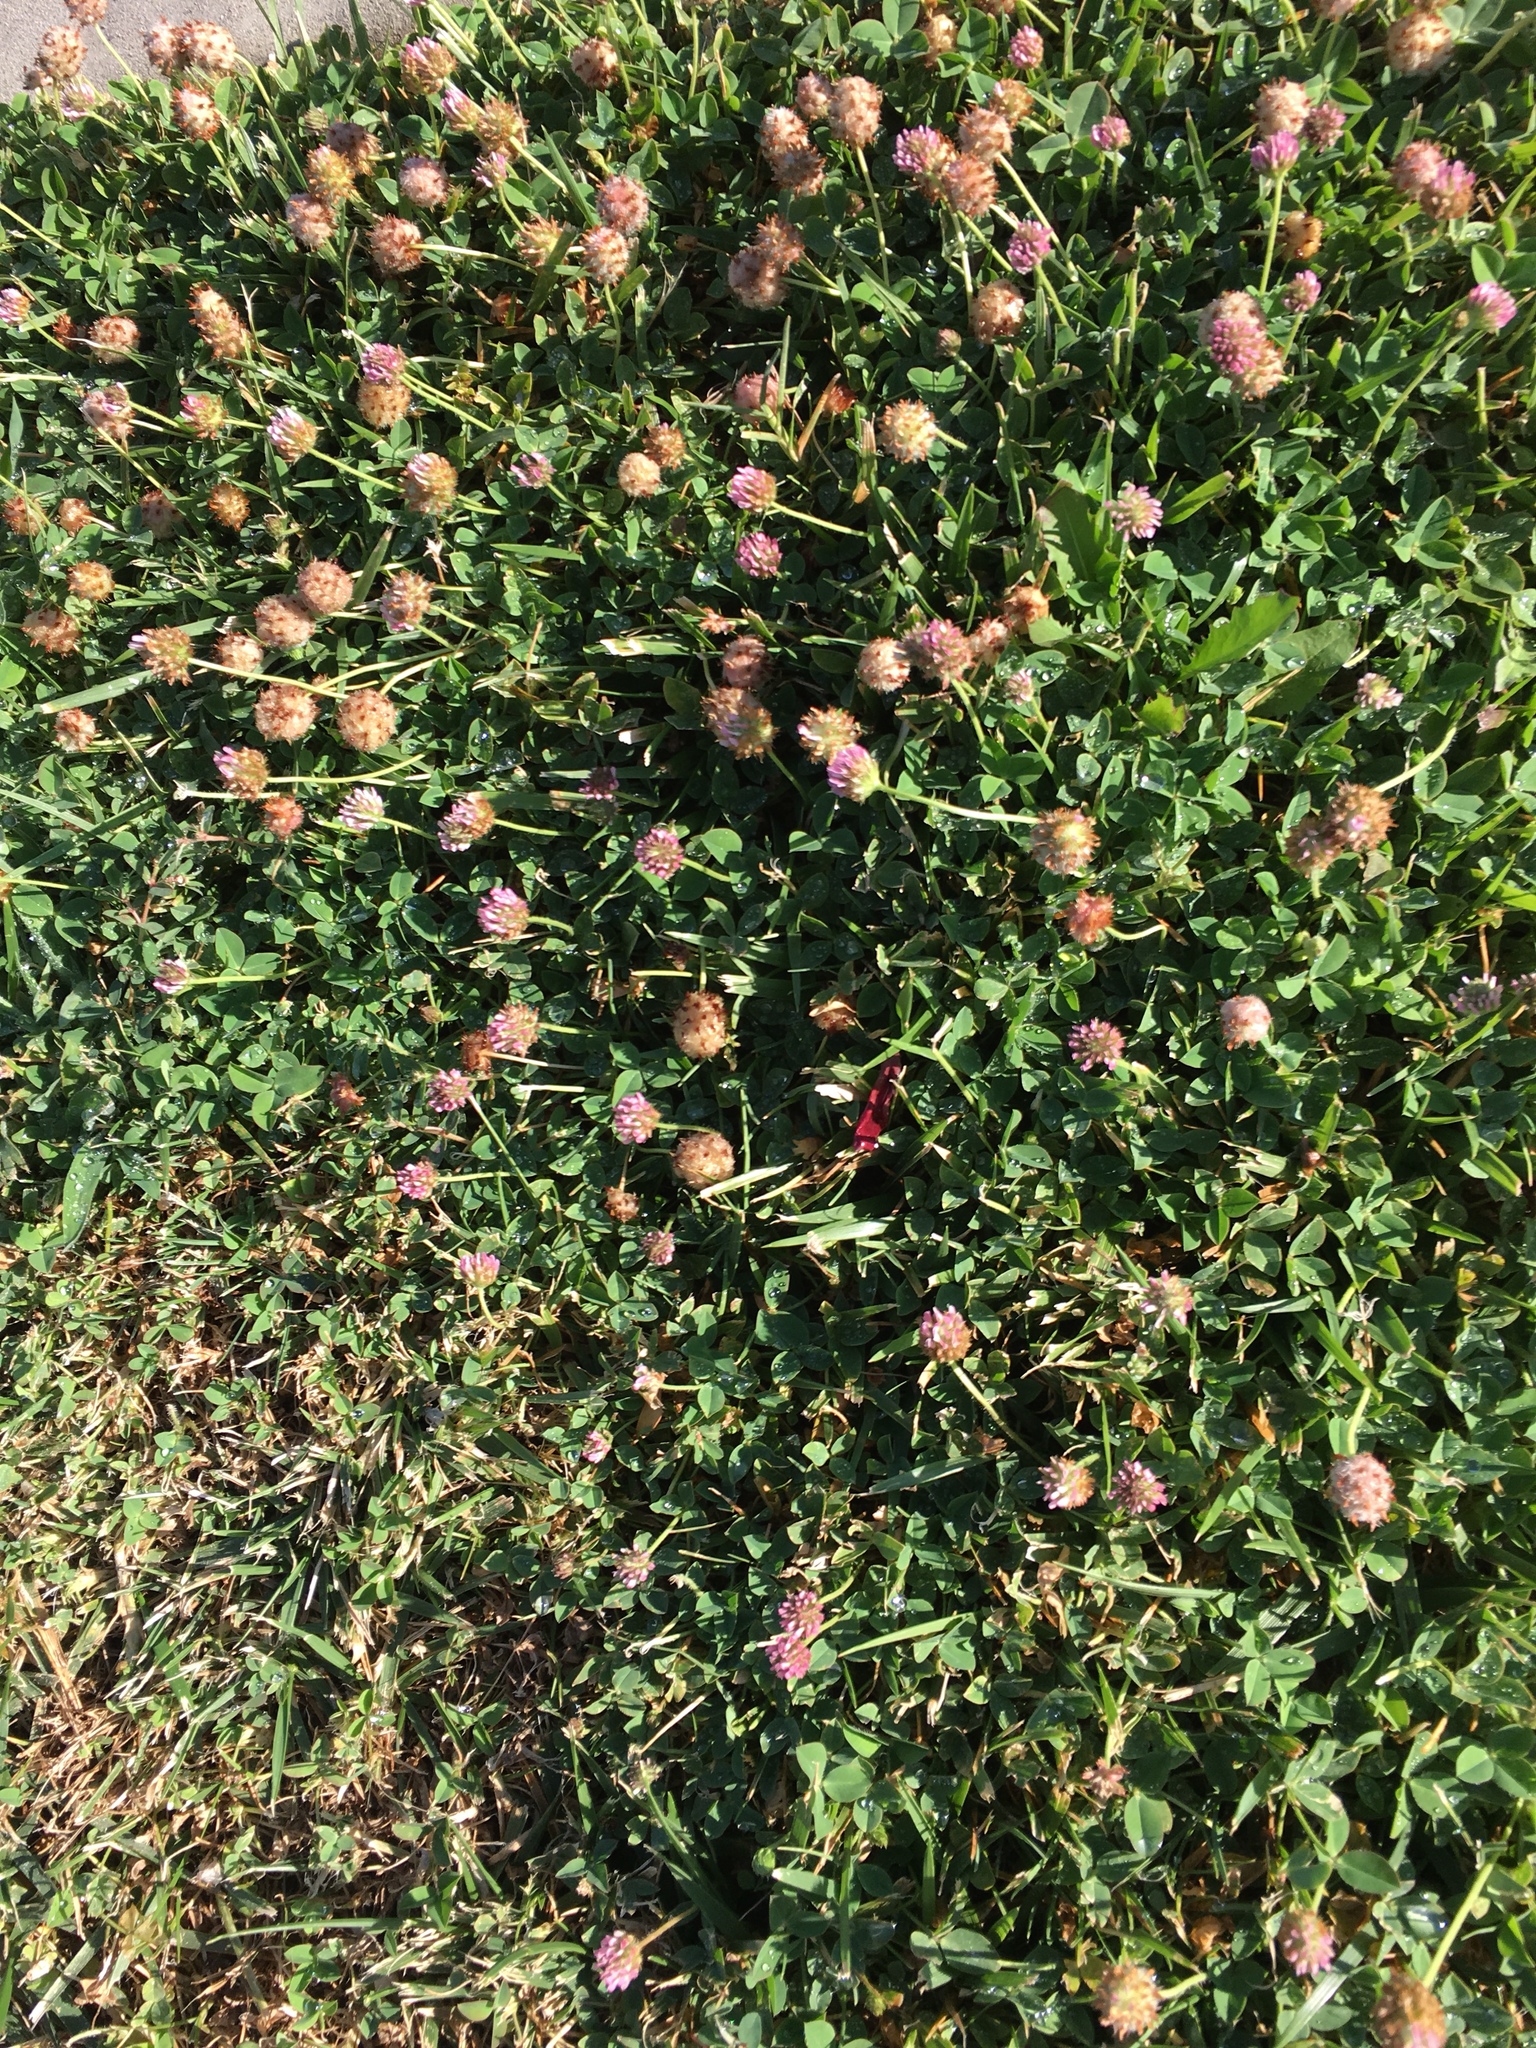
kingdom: Plantae
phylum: Tracheophyta
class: Magnoliopsida
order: Fabales
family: Fabaceae
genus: Trifolium
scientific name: Trifolium fragiferum
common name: Strawberry clover
